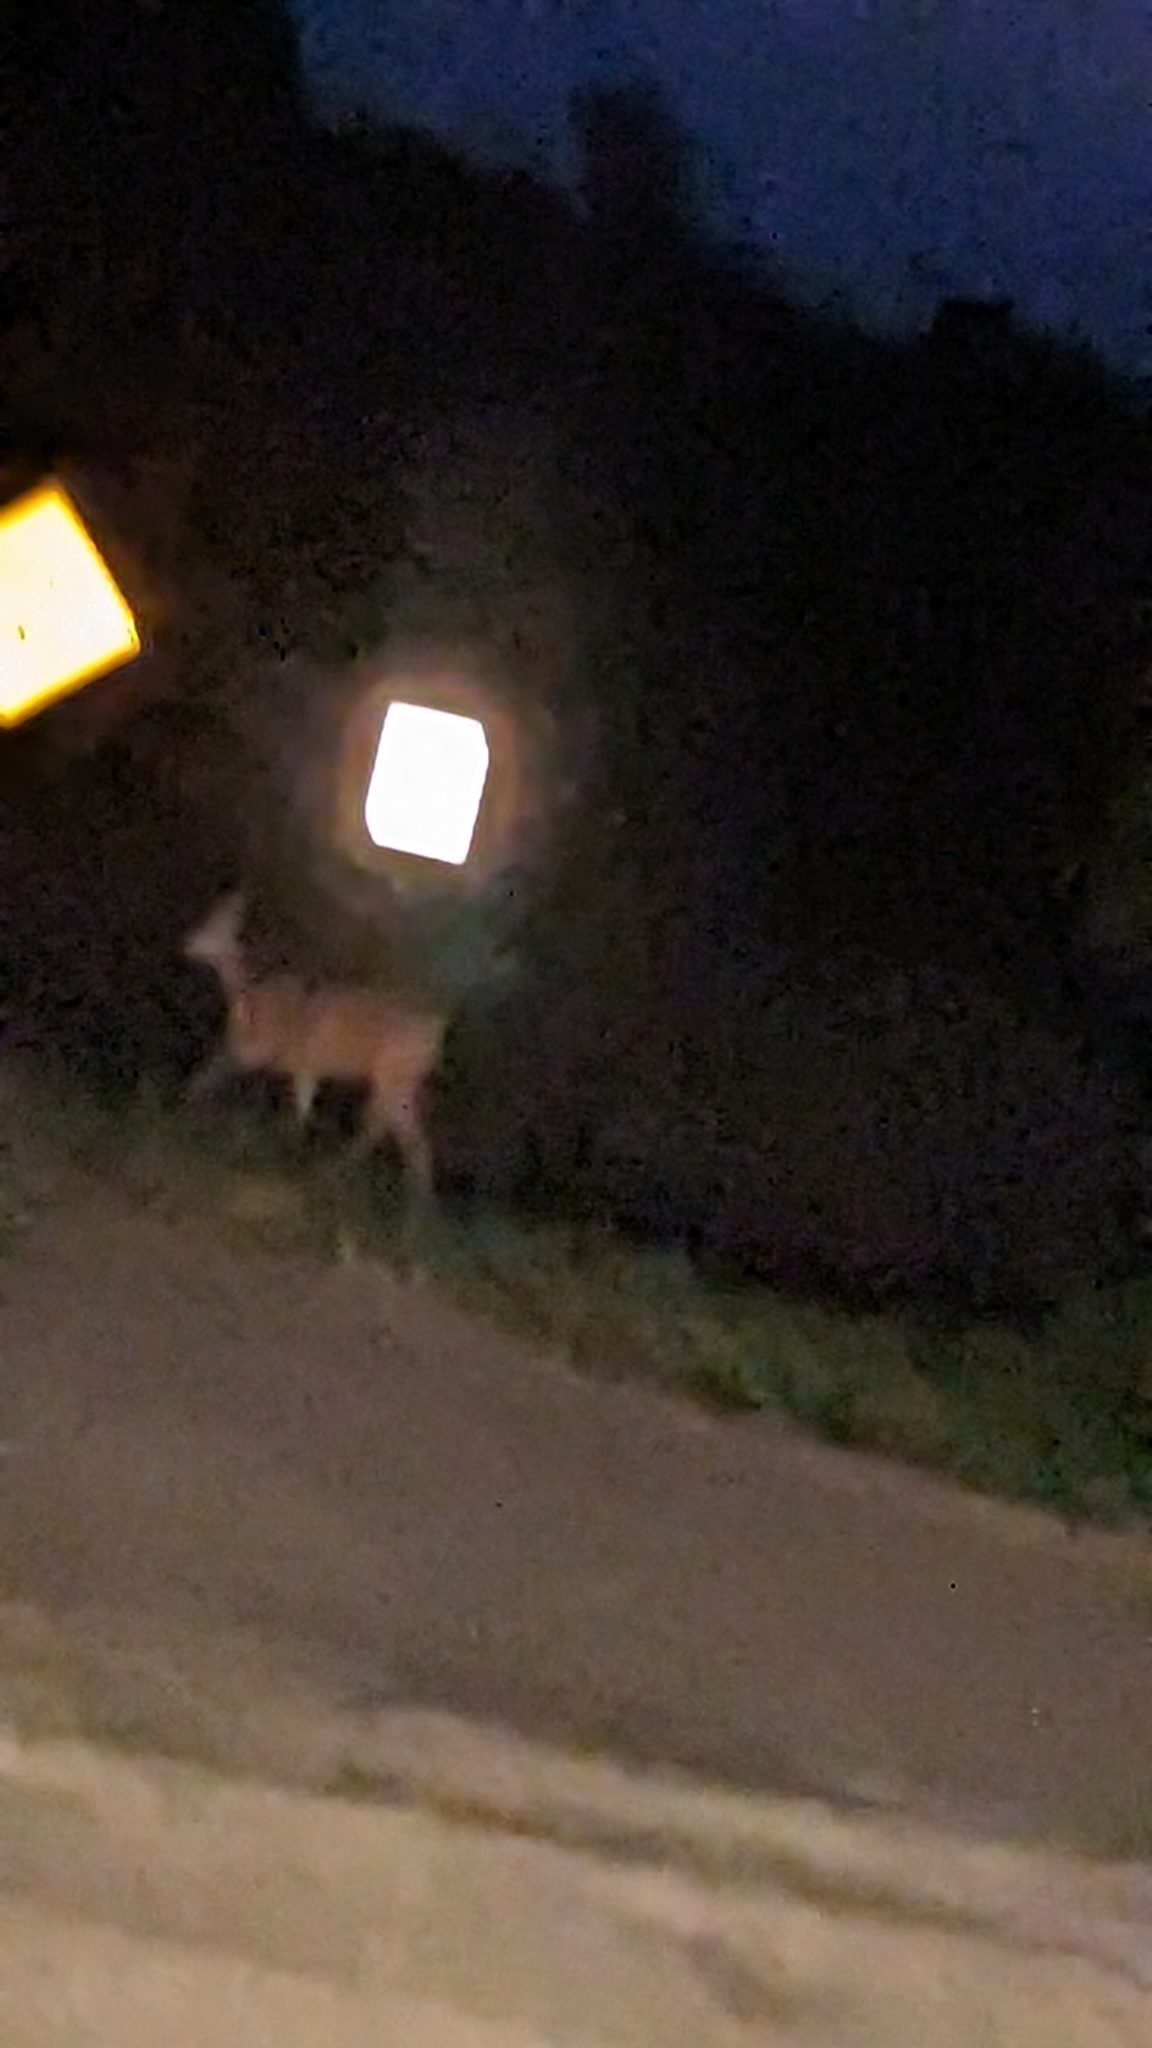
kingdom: Animalia
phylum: Chordata
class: Mammalia
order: Artiodactyla
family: Cervidae
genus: Odocoileus
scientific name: Odocoileus virginianus
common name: White-tailed deer
